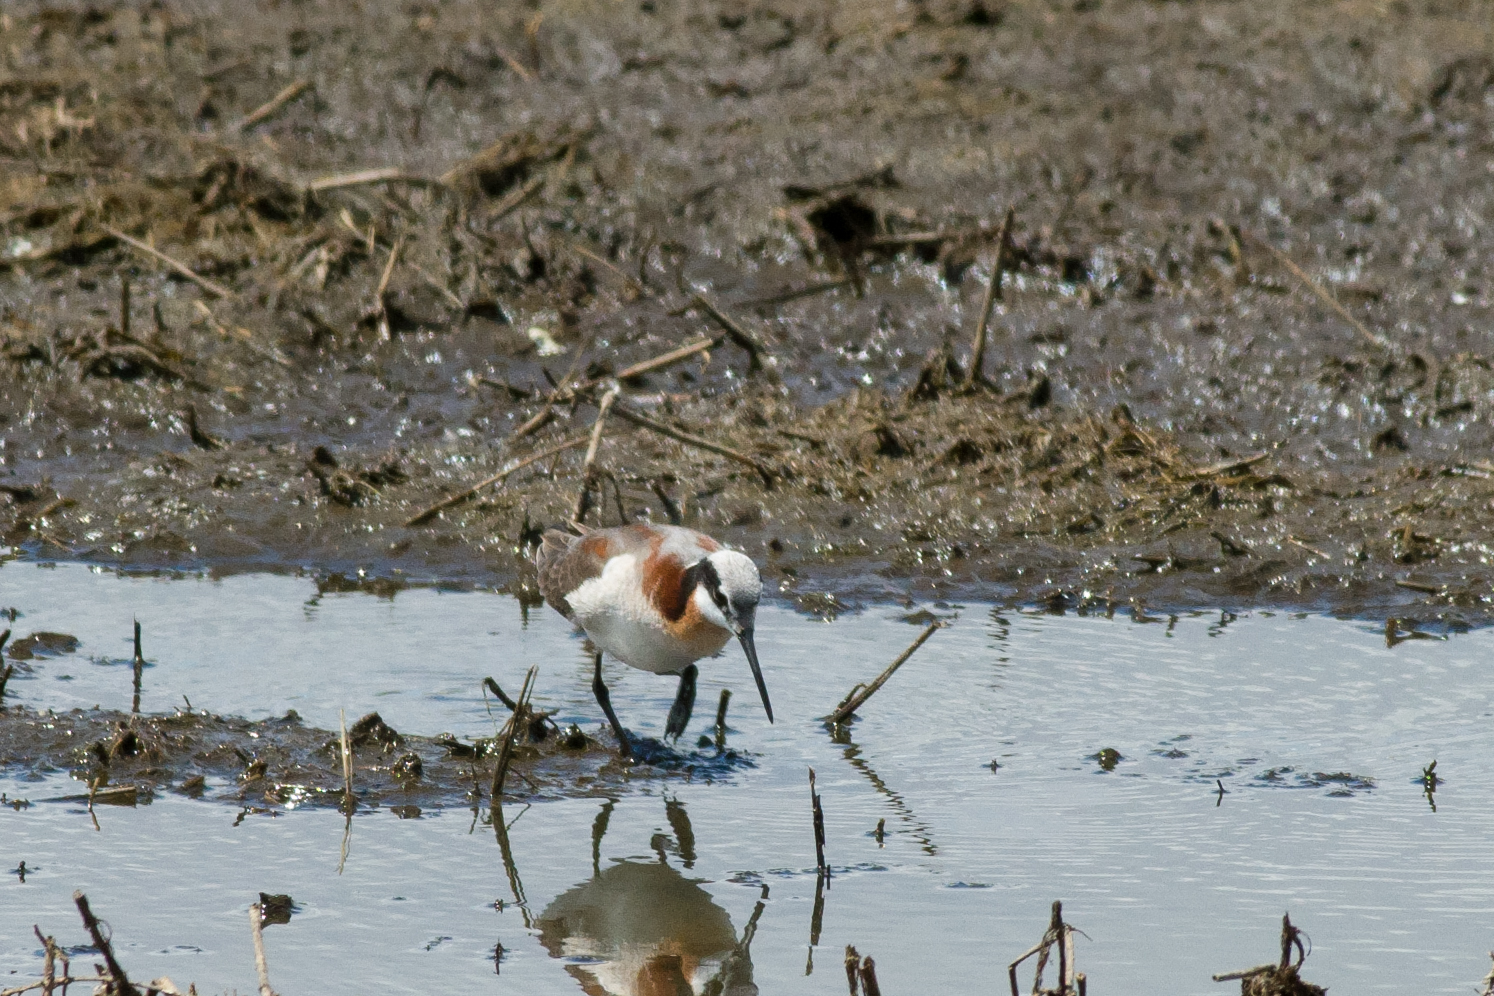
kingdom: Animalia
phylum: Chordata
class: Aves
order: Charadriiformes
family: Scolopacidae
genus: Phalaropus
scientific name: Phalaropus tricolor
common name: Wilson's phalarope
